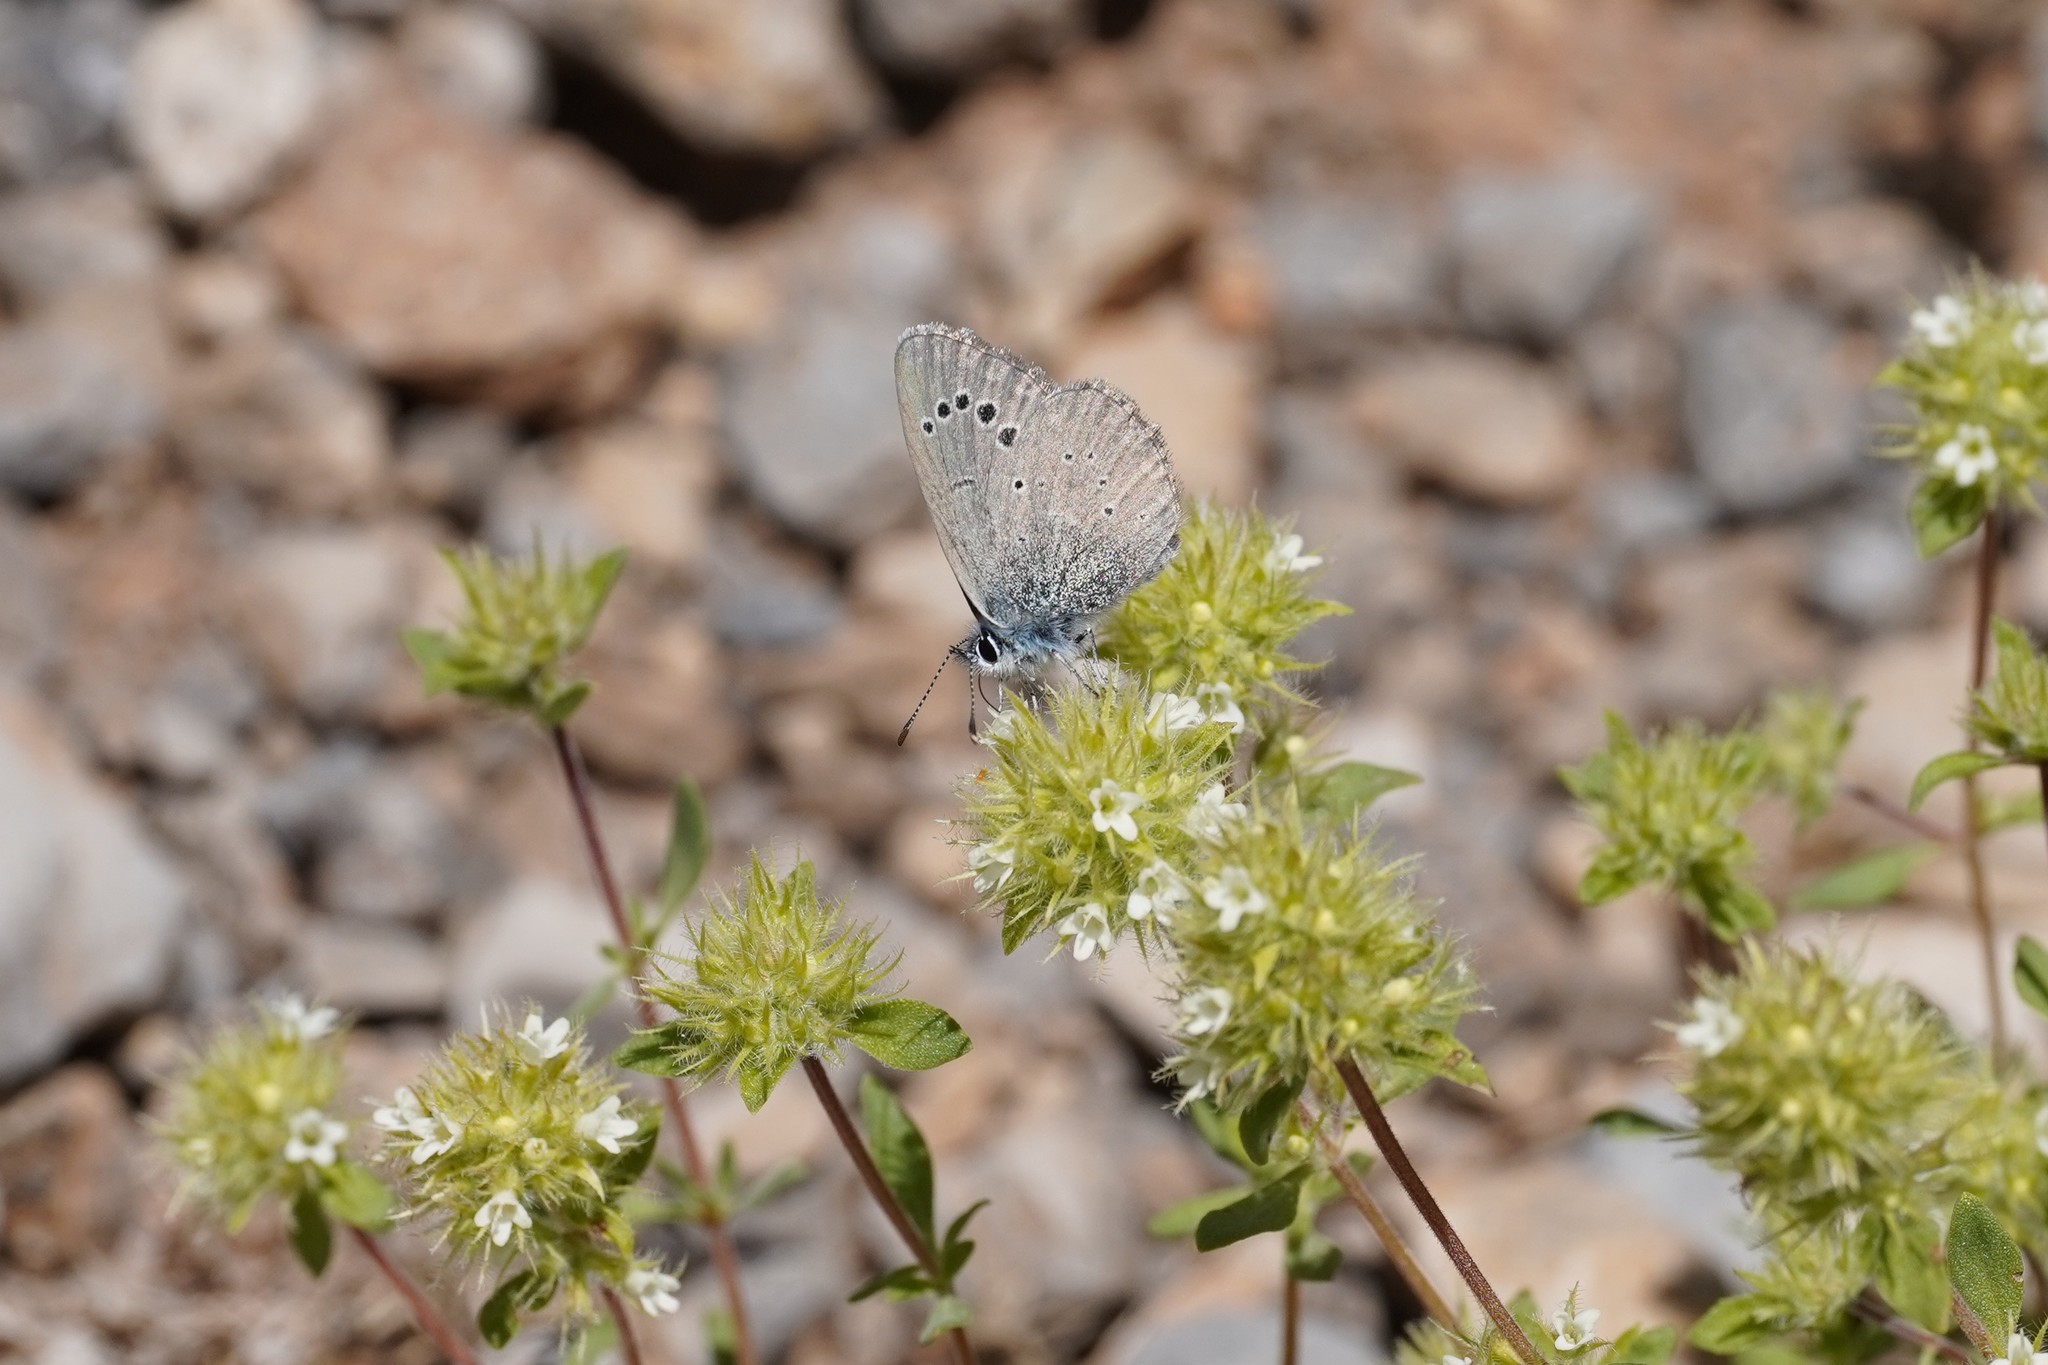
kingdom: Animalia
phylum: Arthropoda
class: Insecta
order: Lepidoptera
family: Lycaenidae
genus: Glaucopsyche
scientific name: Glaucopsyche melanops
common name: Black-eyed blue
